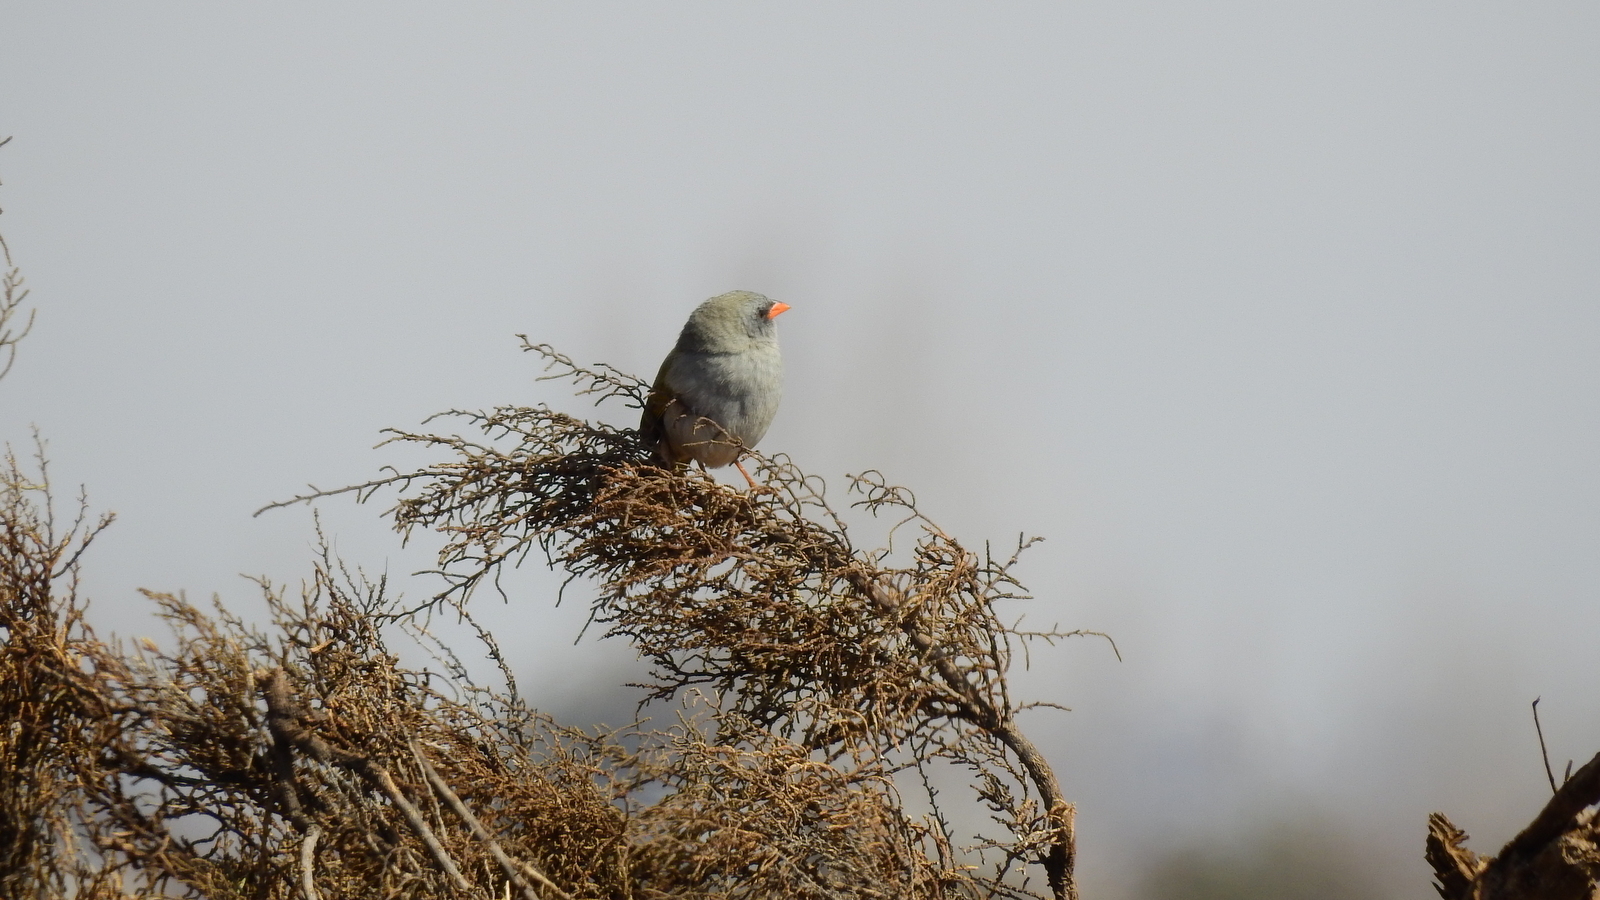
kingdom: Animalia
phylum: Chordata
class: Aves
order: Passeriformes
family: Thraupidae
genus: Embernagra
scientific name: Embernagra platensis
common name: Pampa finch
